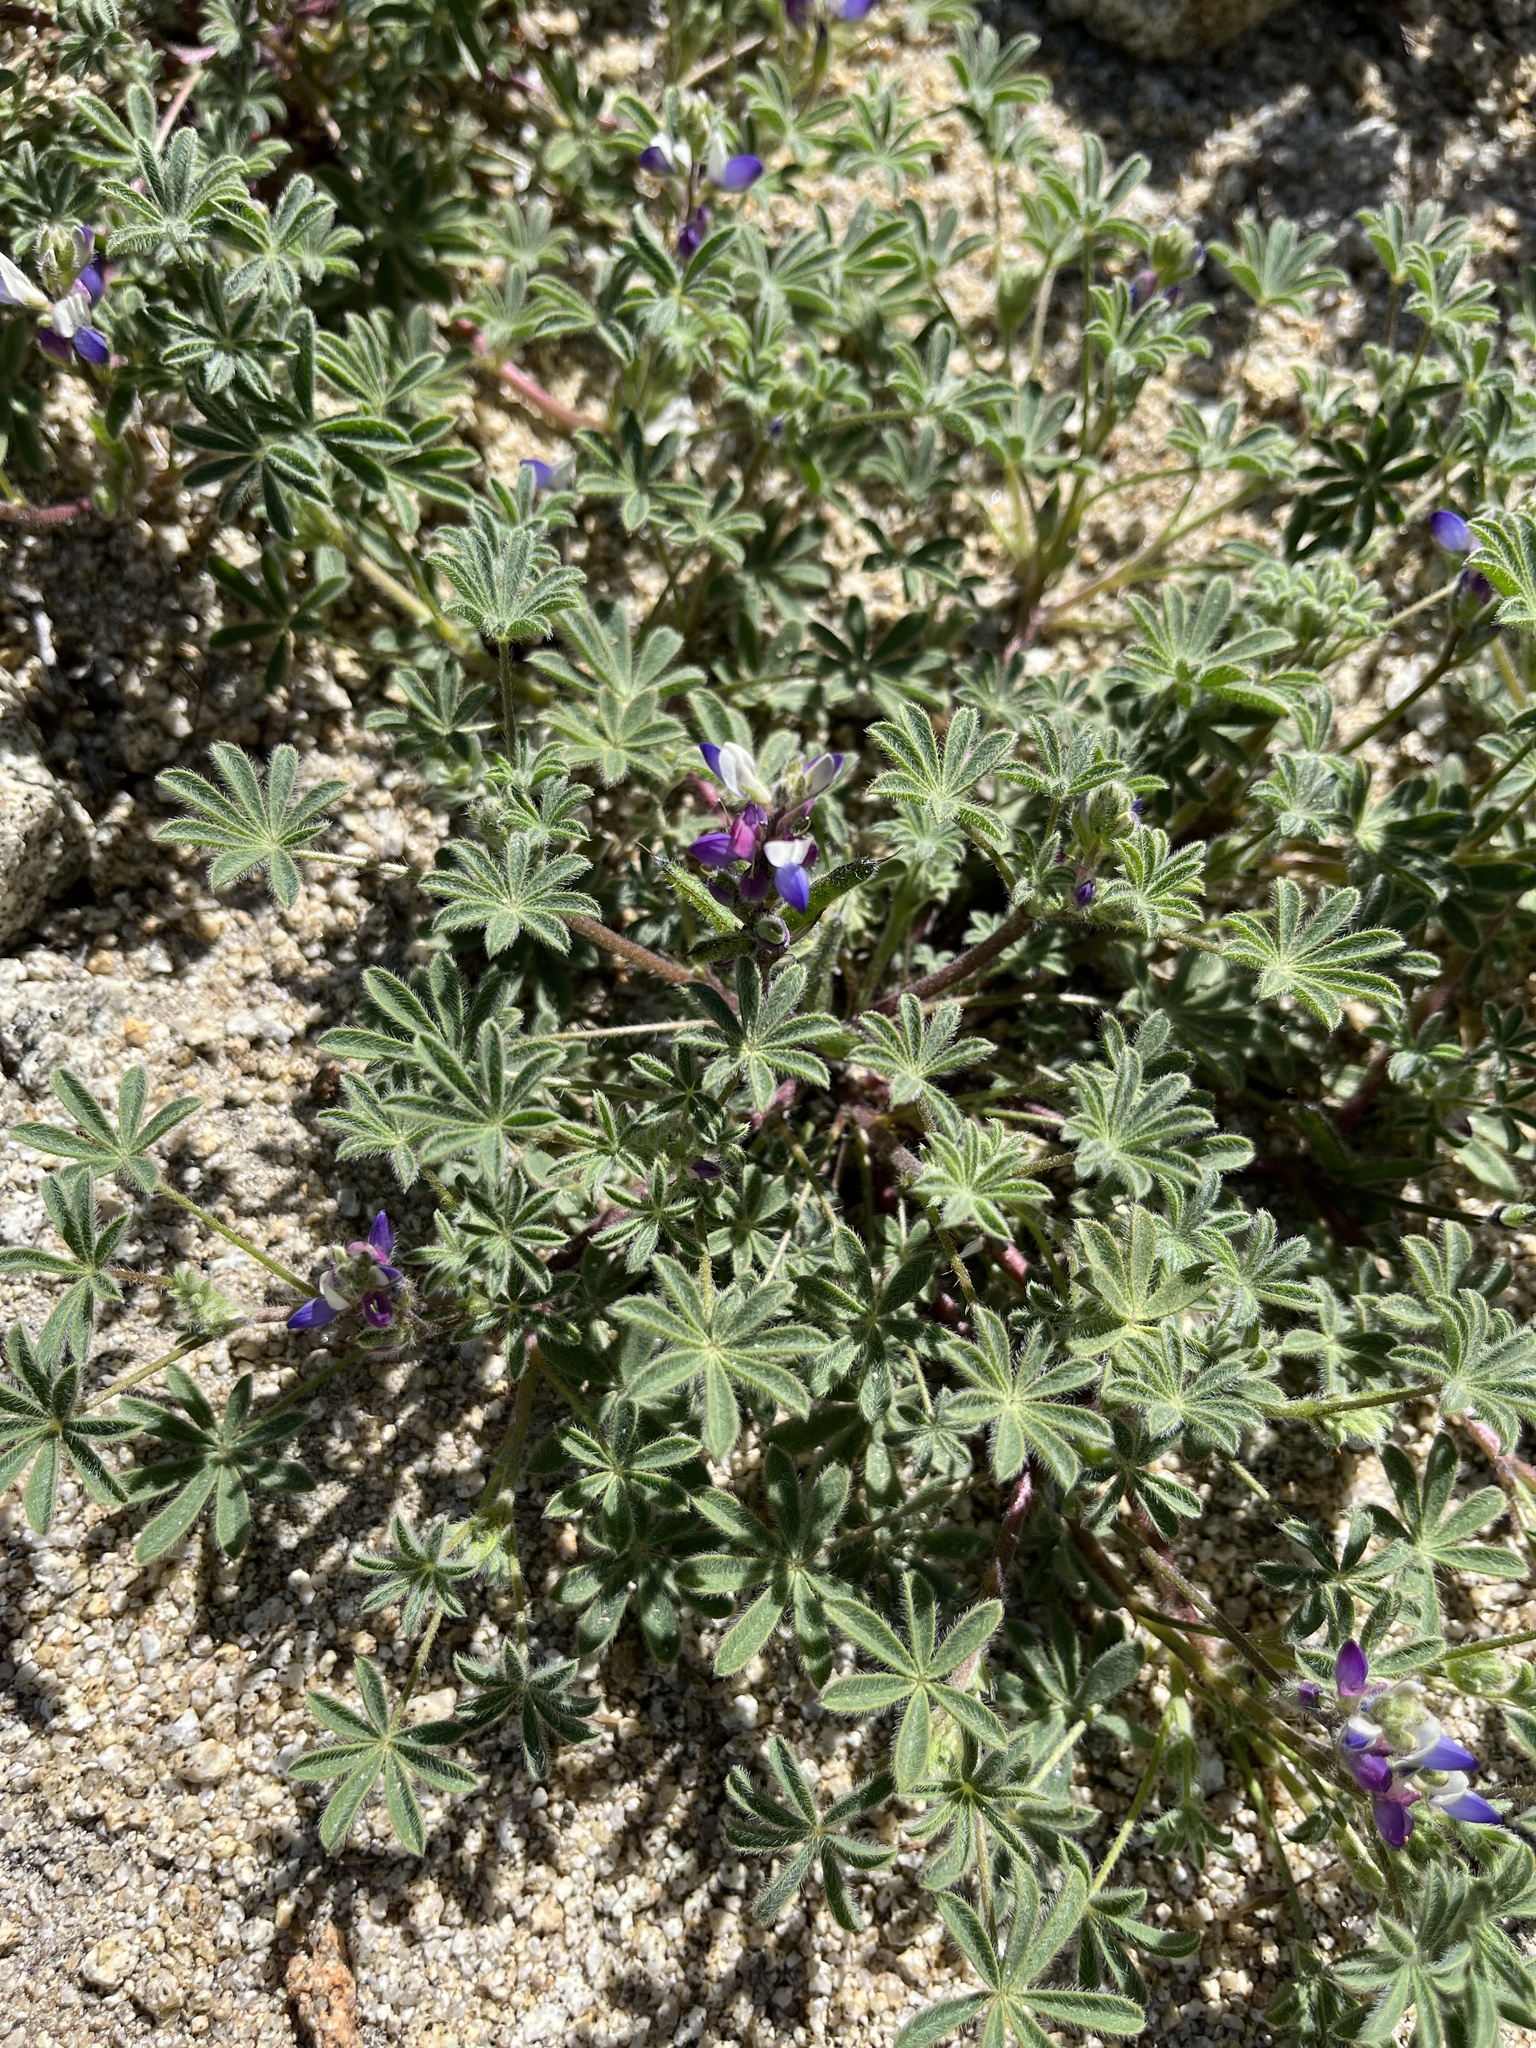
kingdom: Plantae
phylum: Tracheophyta
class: Magnoliopsida
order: Fabales
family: Fabaceae
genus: Lupinus
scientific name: Lupinus concinnus
